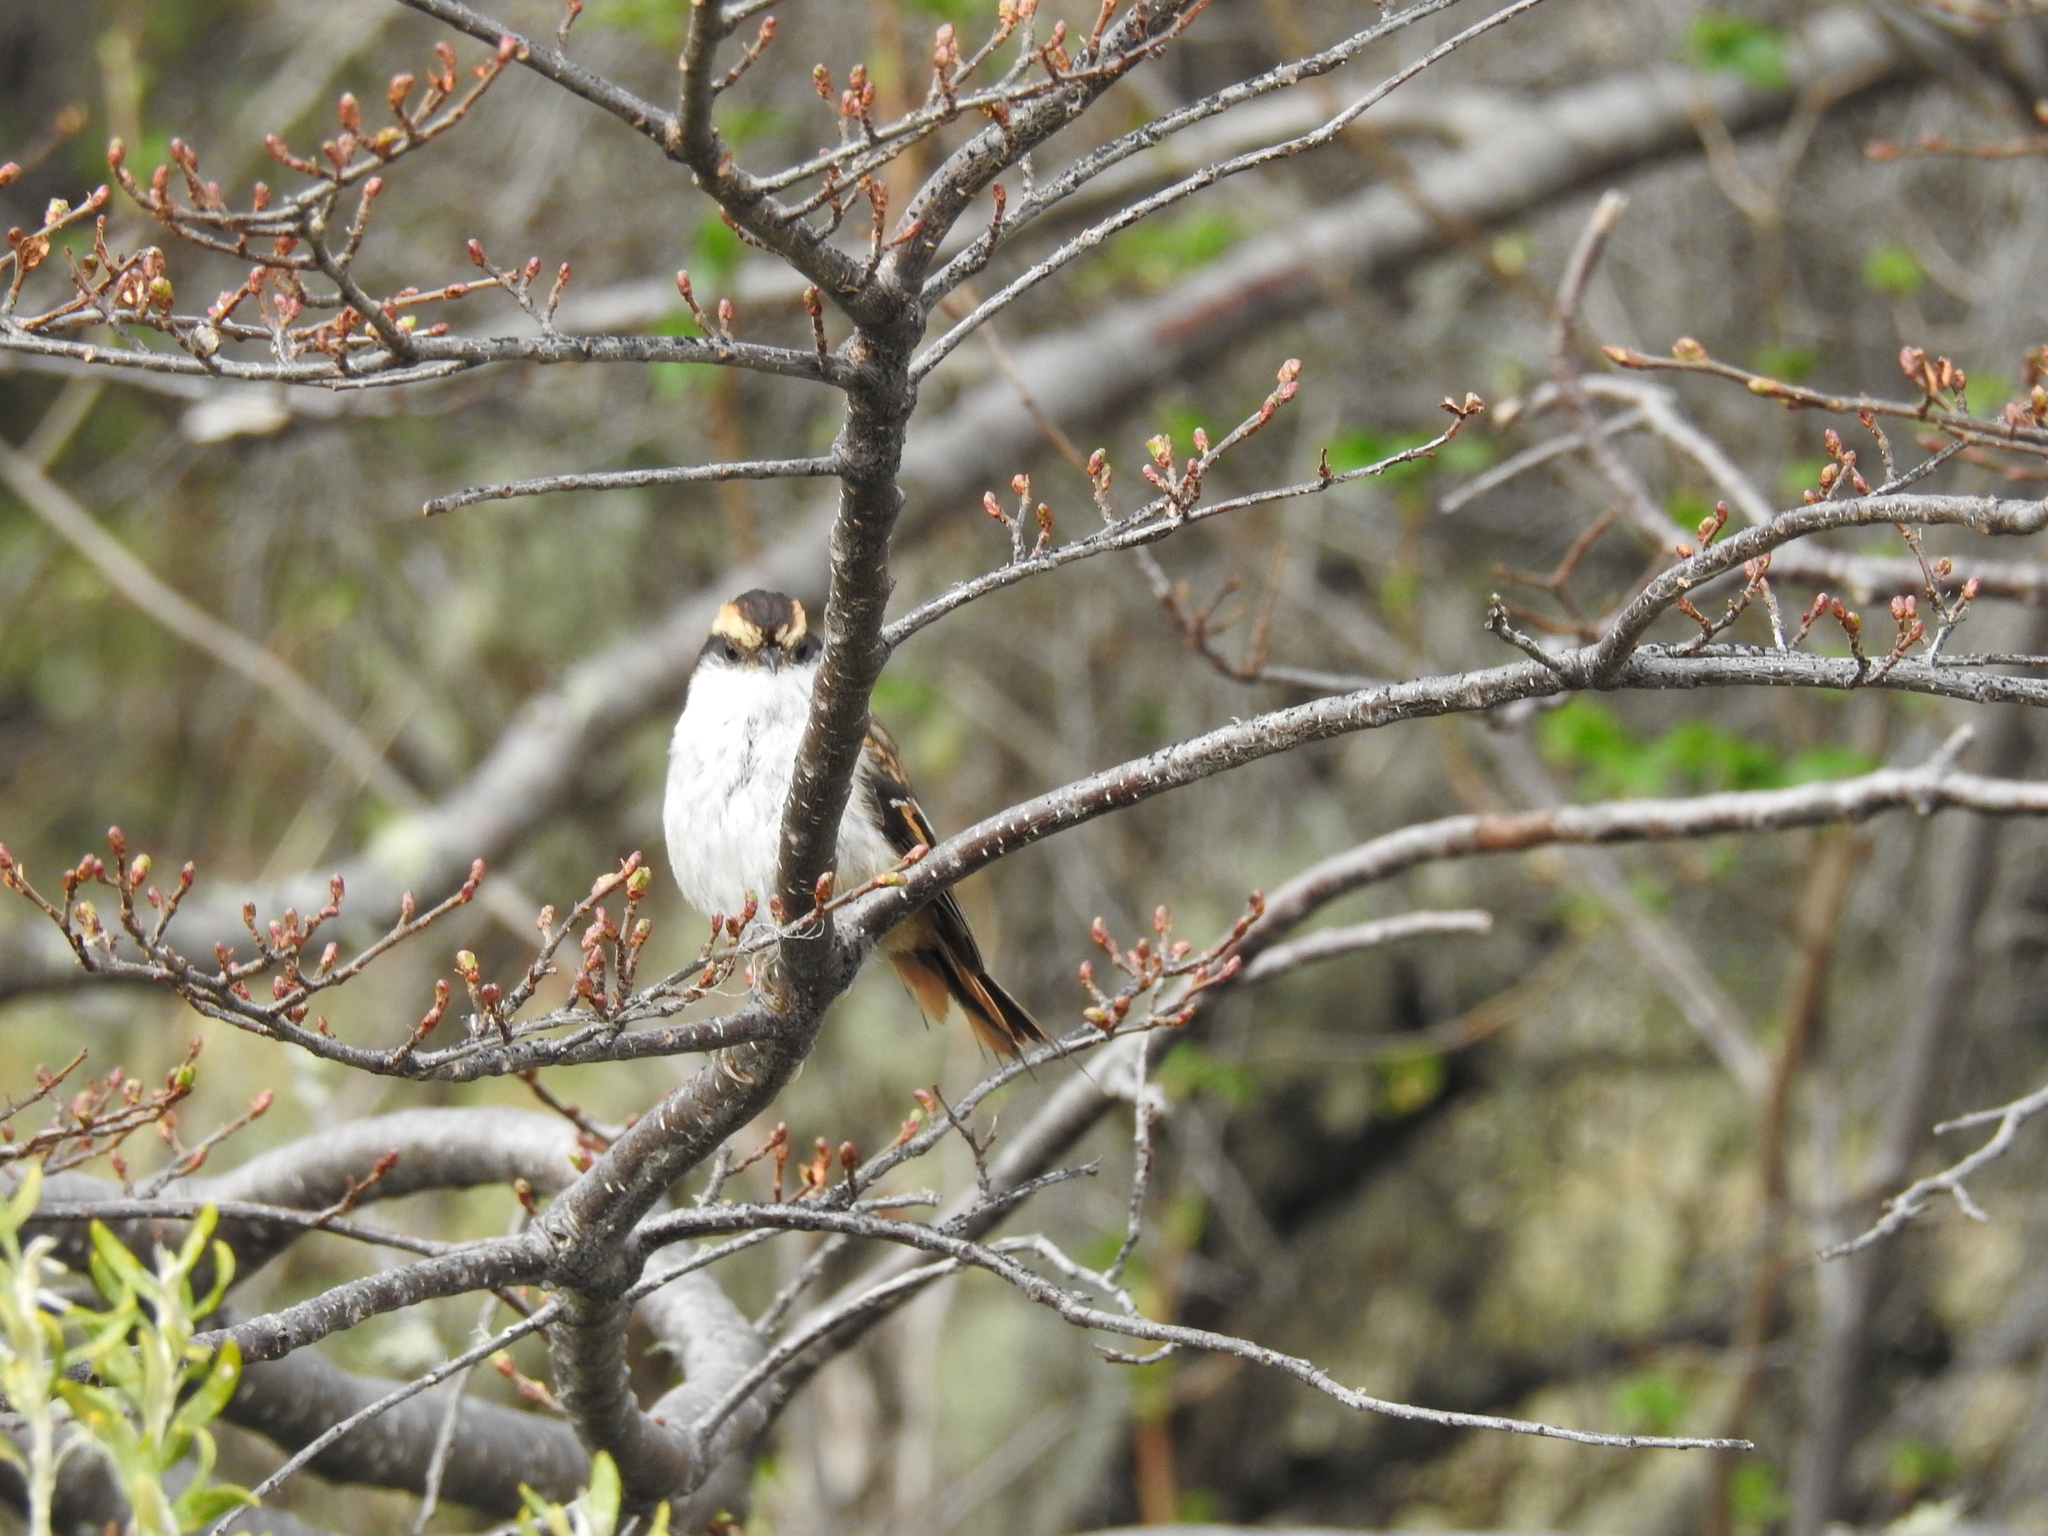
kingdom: Animalia
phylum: Chordata
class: Aves
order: Passeriformes
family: Furnariidae
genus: Aphrastura
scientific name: Aphrastura spinicauda
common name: Thorn-tailed rayadito
